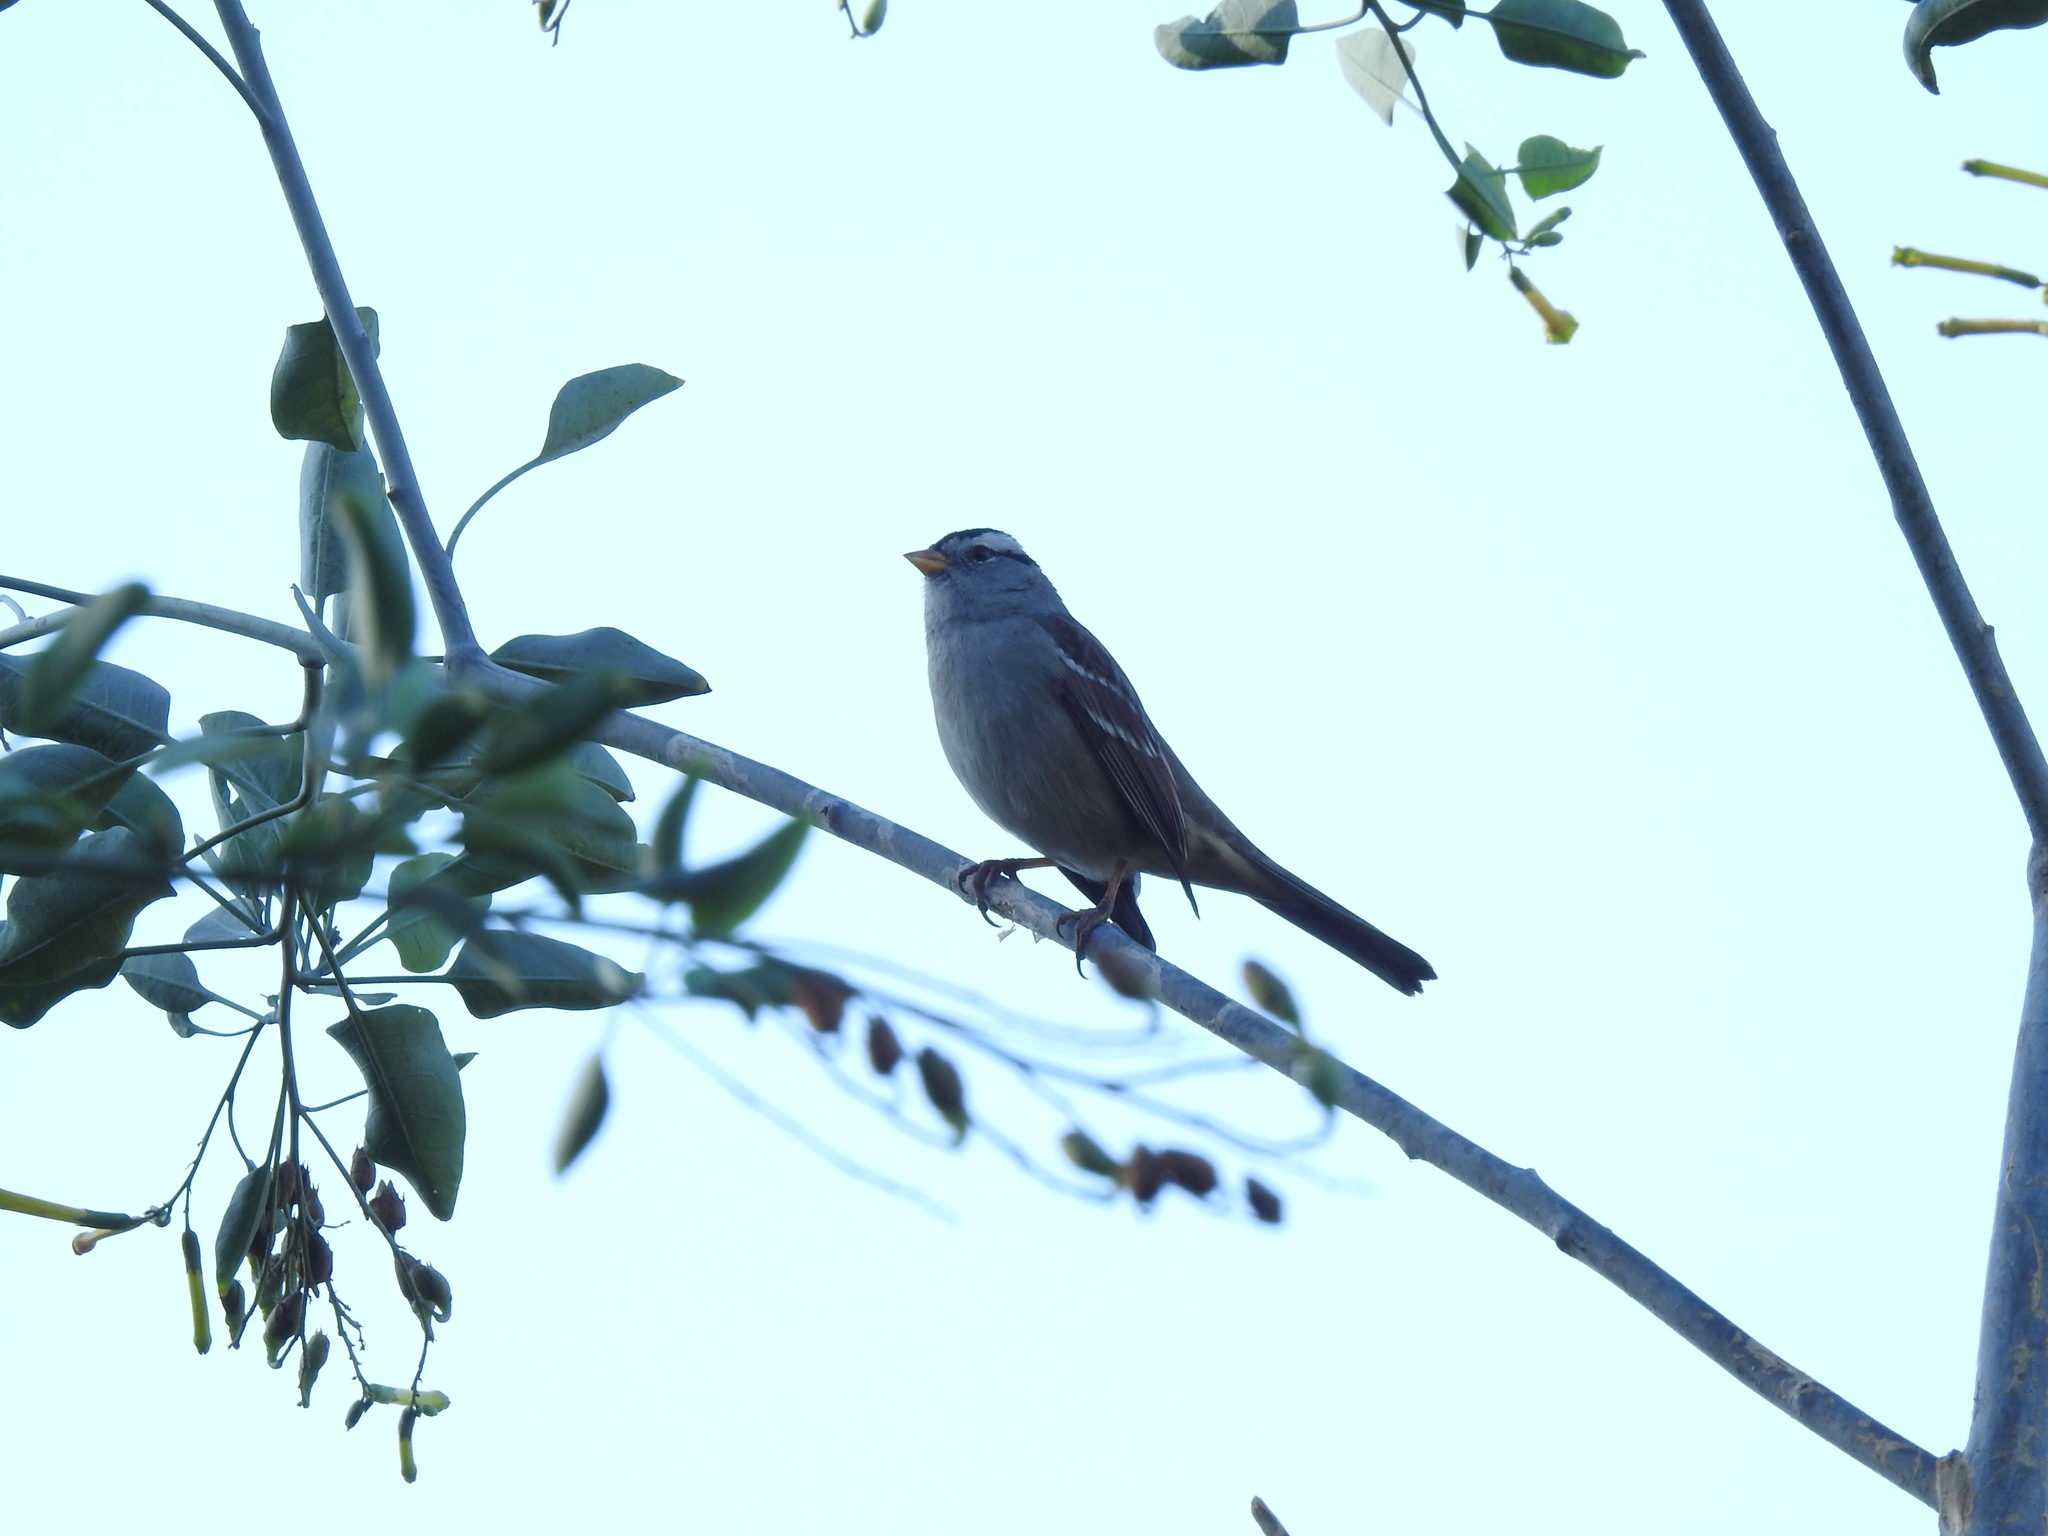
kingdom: Animalia
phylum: Chordata
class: Aves
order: Passeriformes
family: Passerellidae
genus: Zonotrichia
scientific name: Zonotrichia leucophrys
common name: White-crowned sparrow
